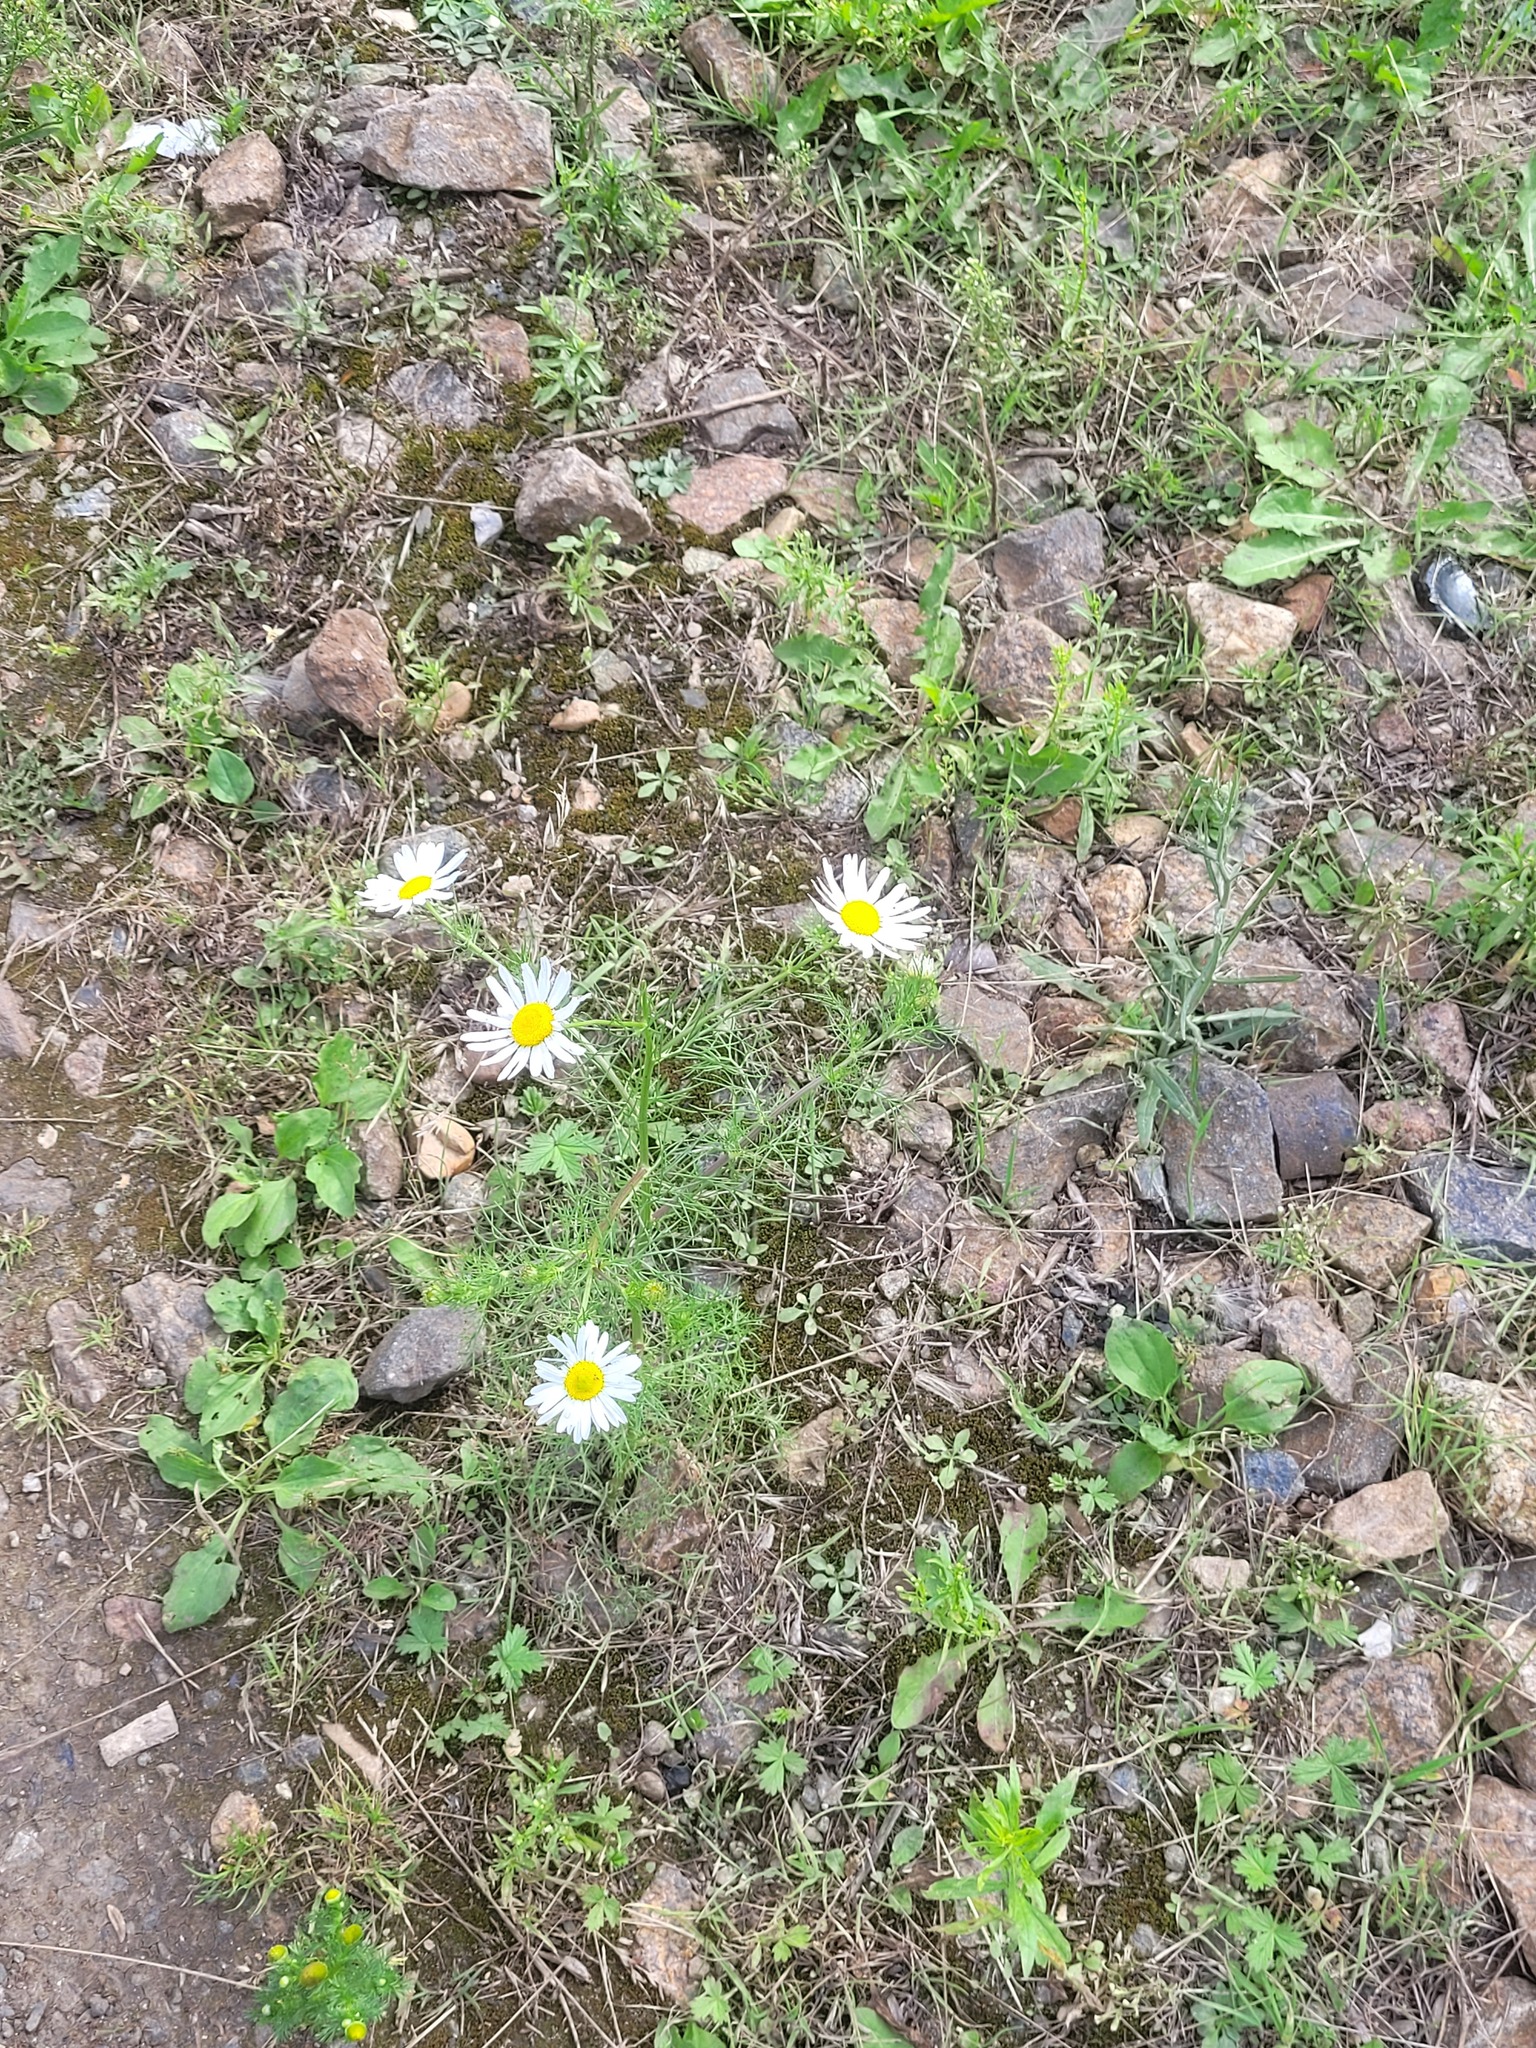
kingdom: Plantae
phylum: Tracheophyta
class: Magnoliopsida
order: Asterales
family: Asteraceae
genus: Tripleurospermum
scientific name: Tripleurospermum inodorum
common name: Scentless mayweed
